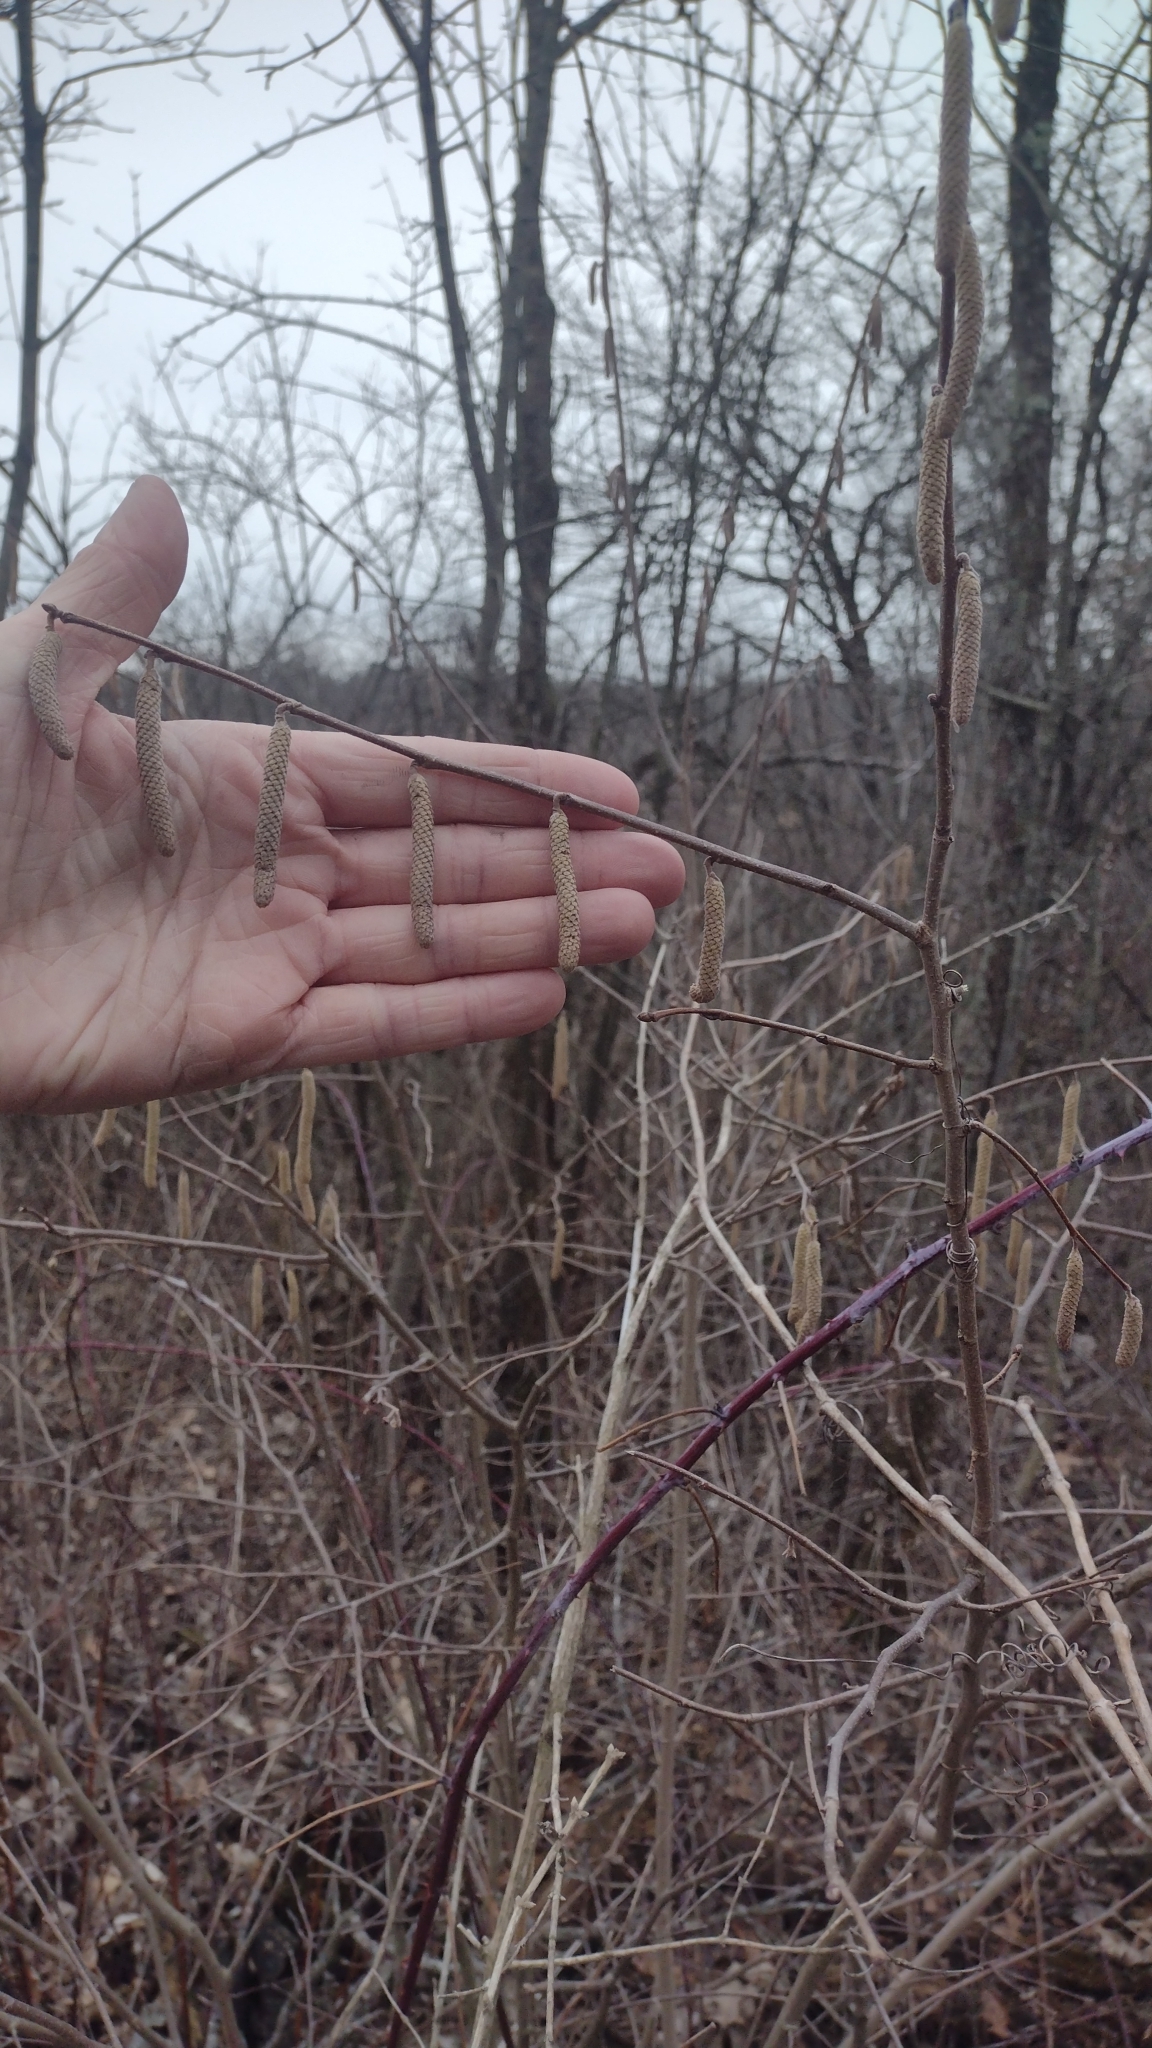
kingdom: Plantae
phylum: Tracheophyta
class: Magnoliopsida
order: Fagales
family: Betulaceae
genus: Corylus
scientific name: Corylus americana
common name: American hazel
